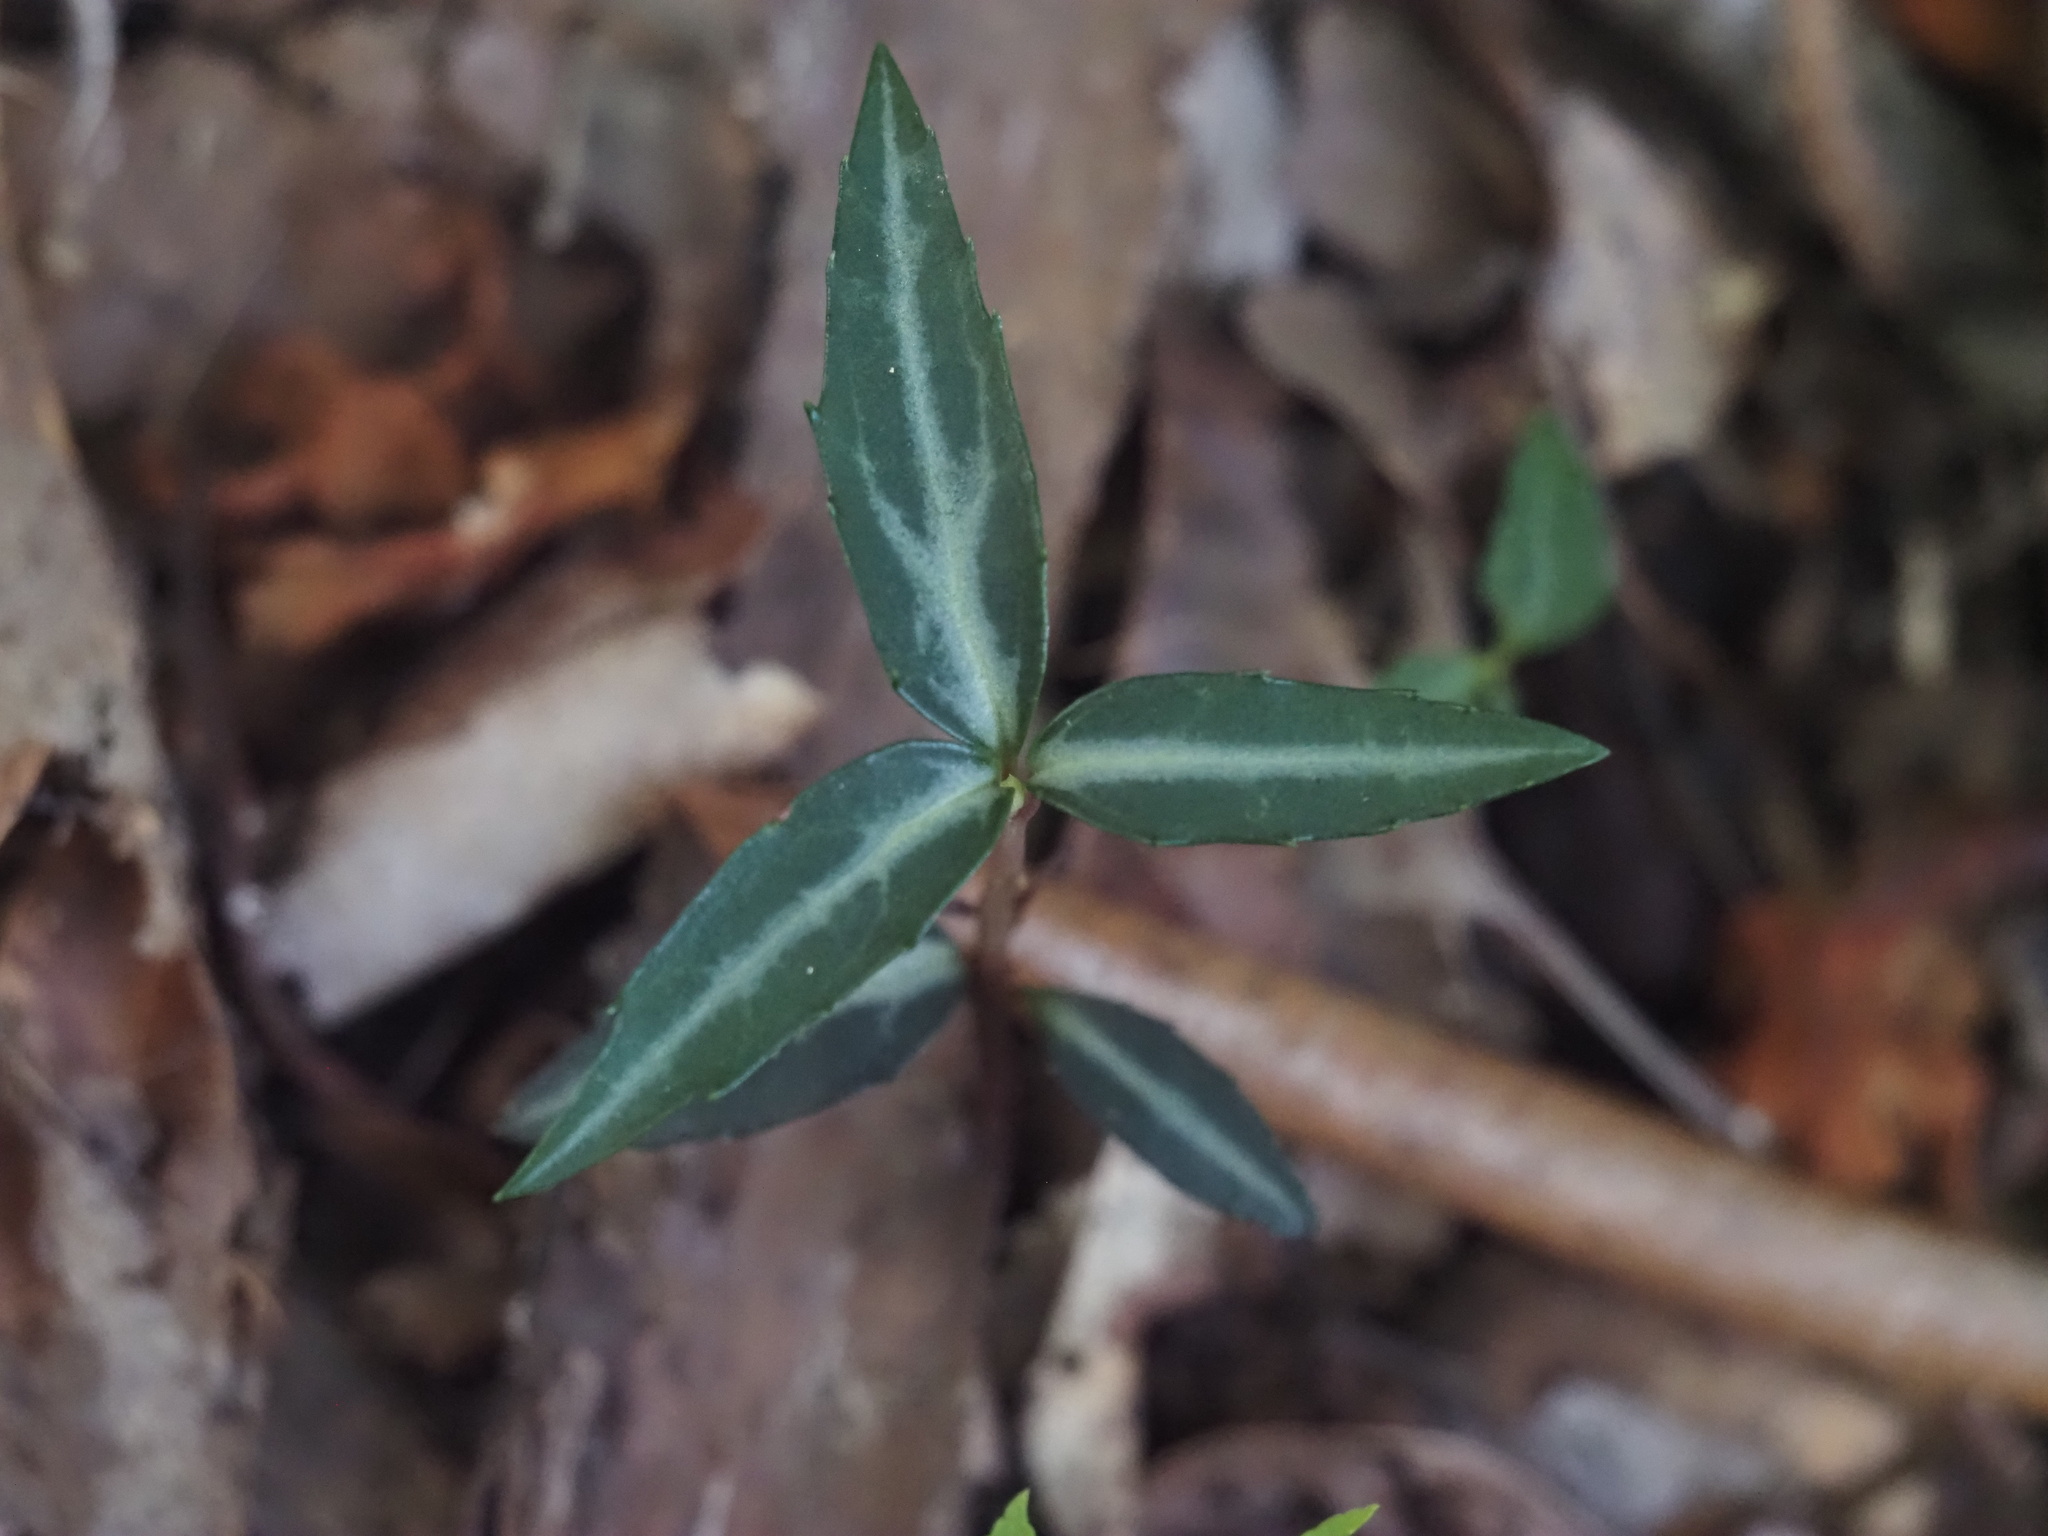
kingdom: Plantae
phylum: Tracheophyta
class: Magnoliopsida
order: Ericales
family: Ericaceae
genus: Chimaphila
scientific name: Chimaphila maculata
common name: Spotted pipsissewa
